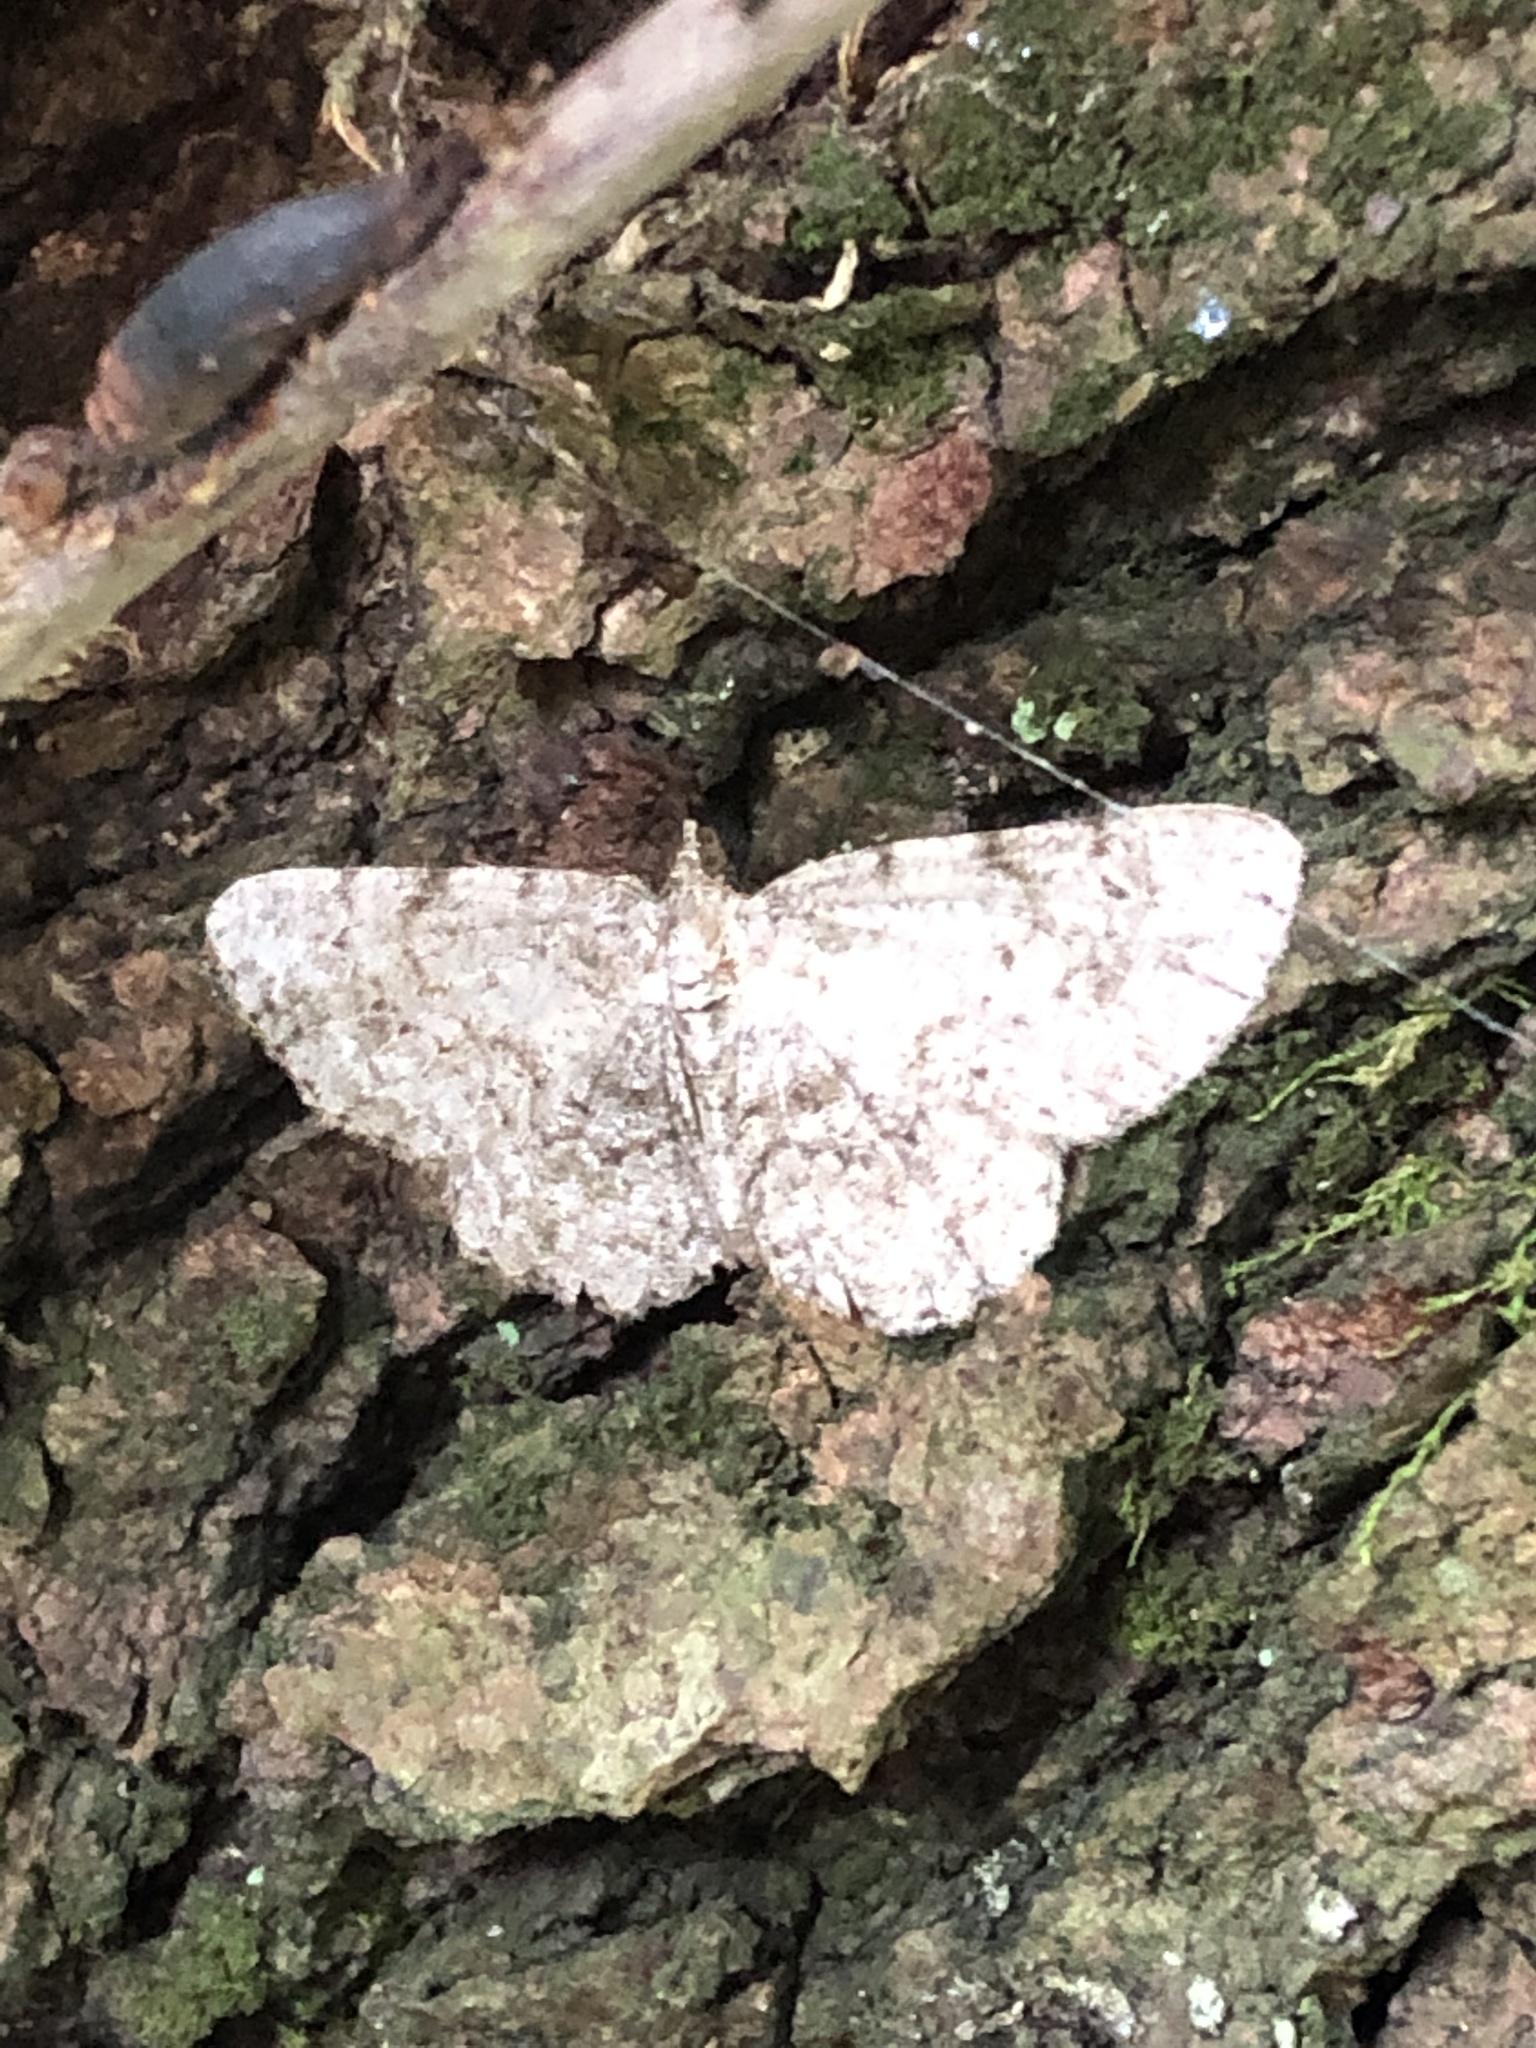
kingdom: Animalia
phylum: Arthropoda
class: Insecta
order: Lepidoptera
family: Geometridae
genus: Protoboarmia
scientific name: Protoboarmia porcelaria
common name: Porcelain gray
